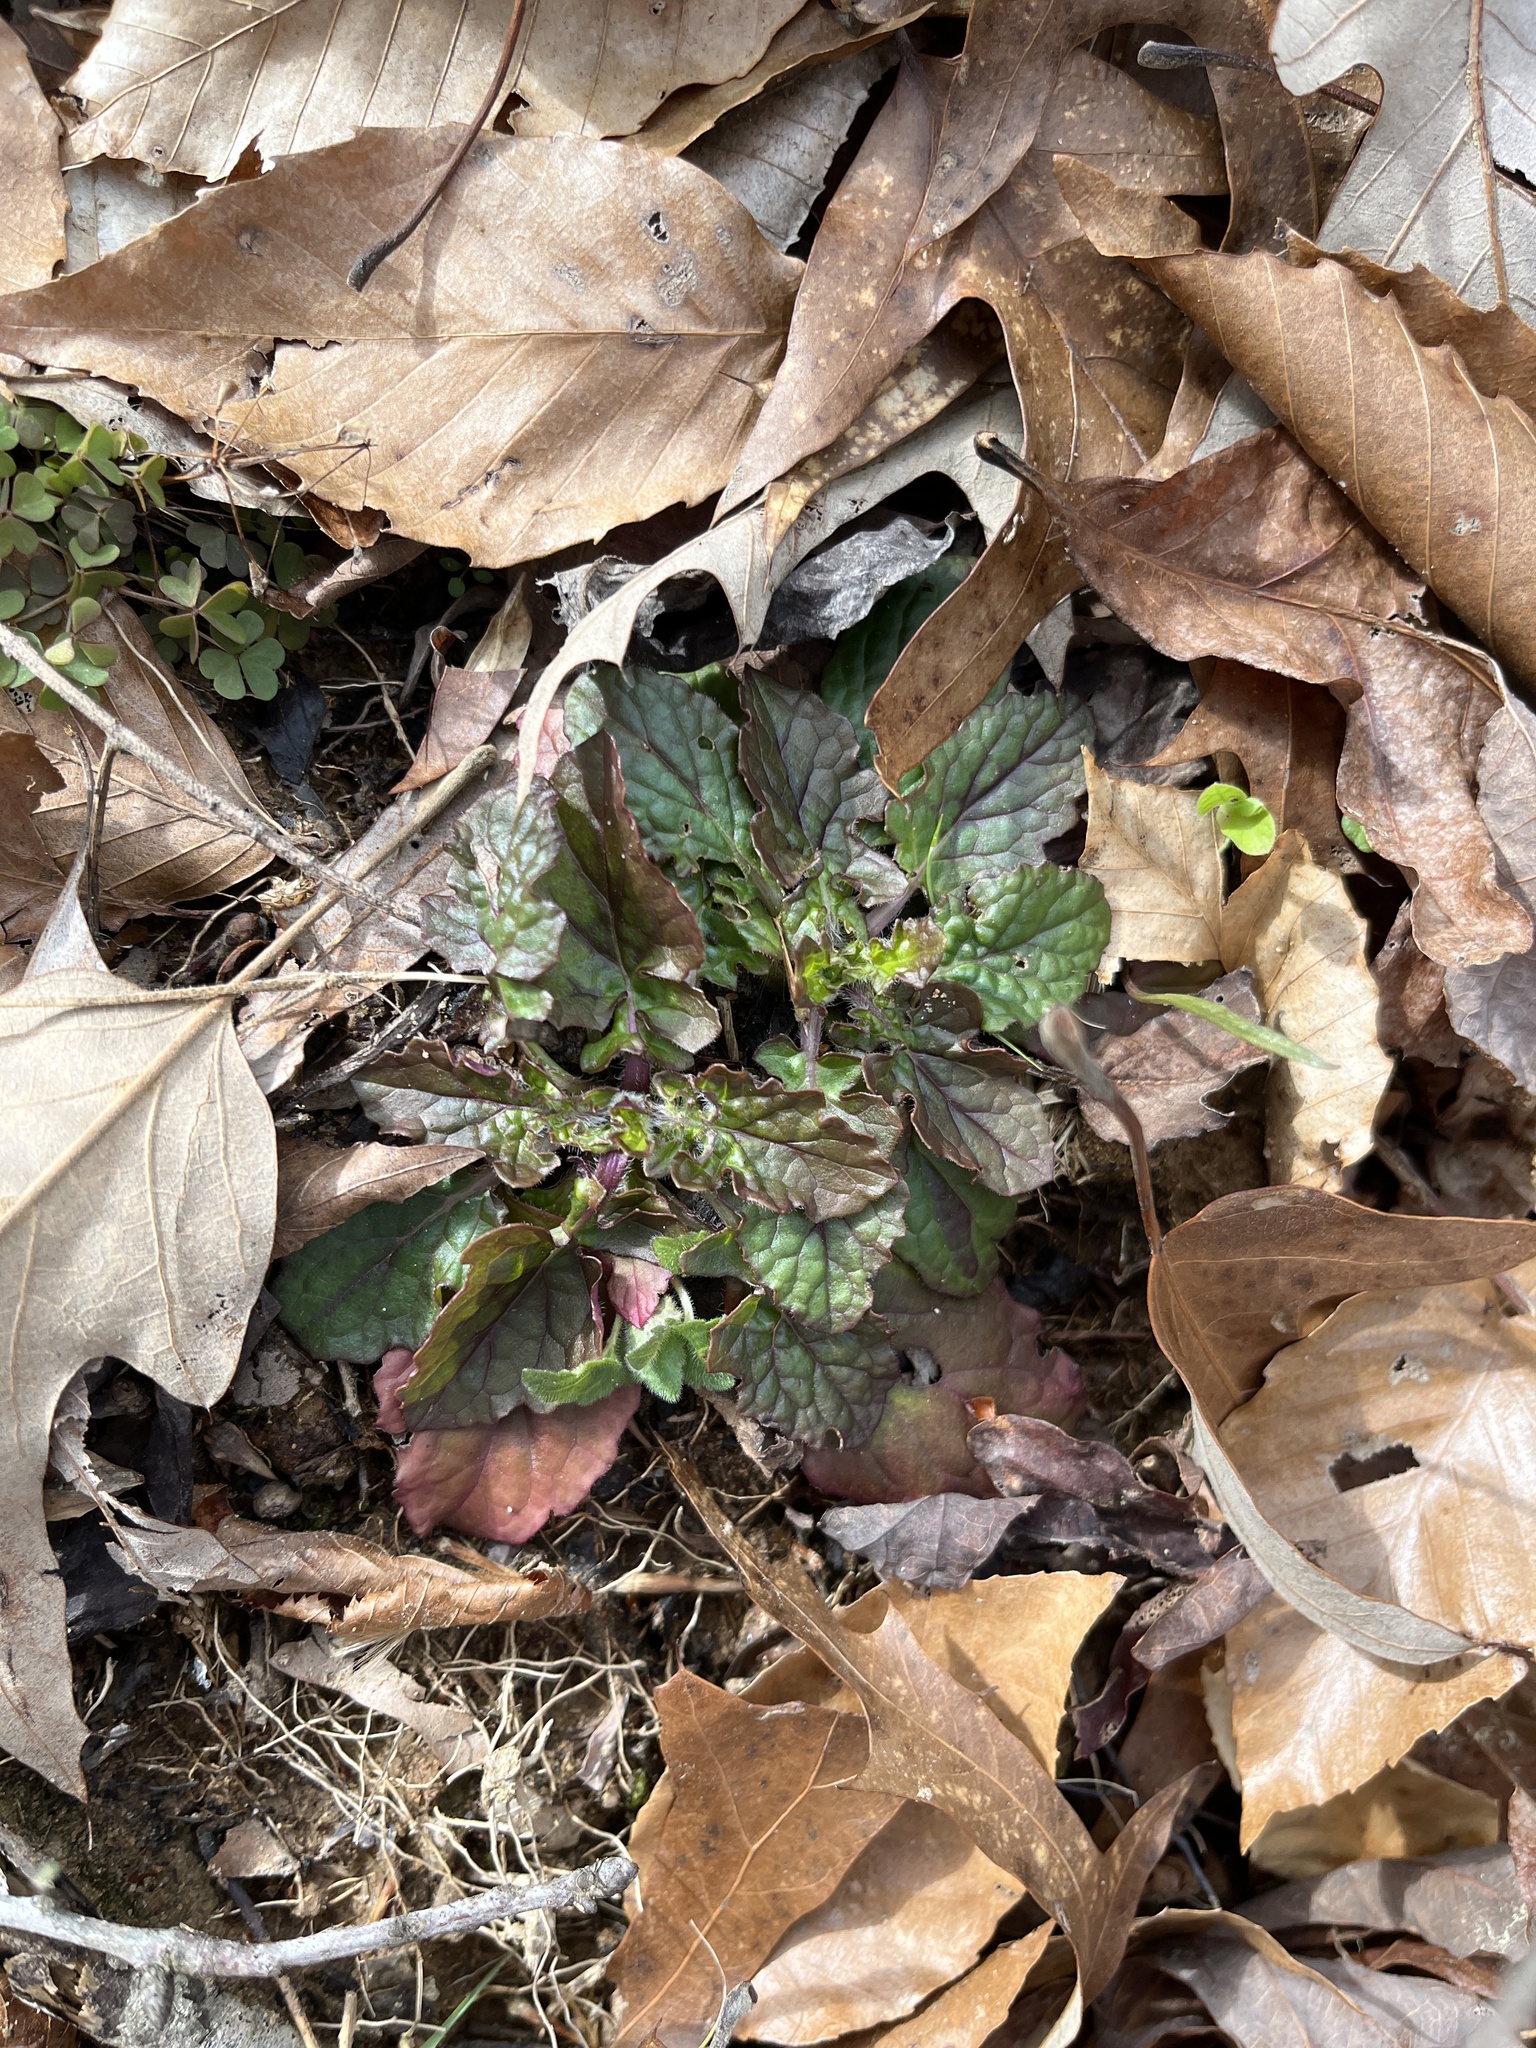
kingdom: Plantae
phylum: Tracheophyta
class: Magnoliopsida
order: Lamiales
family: Lamiaceae
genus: Salvia
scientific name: Salvia lyrata
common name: Cancerweed
